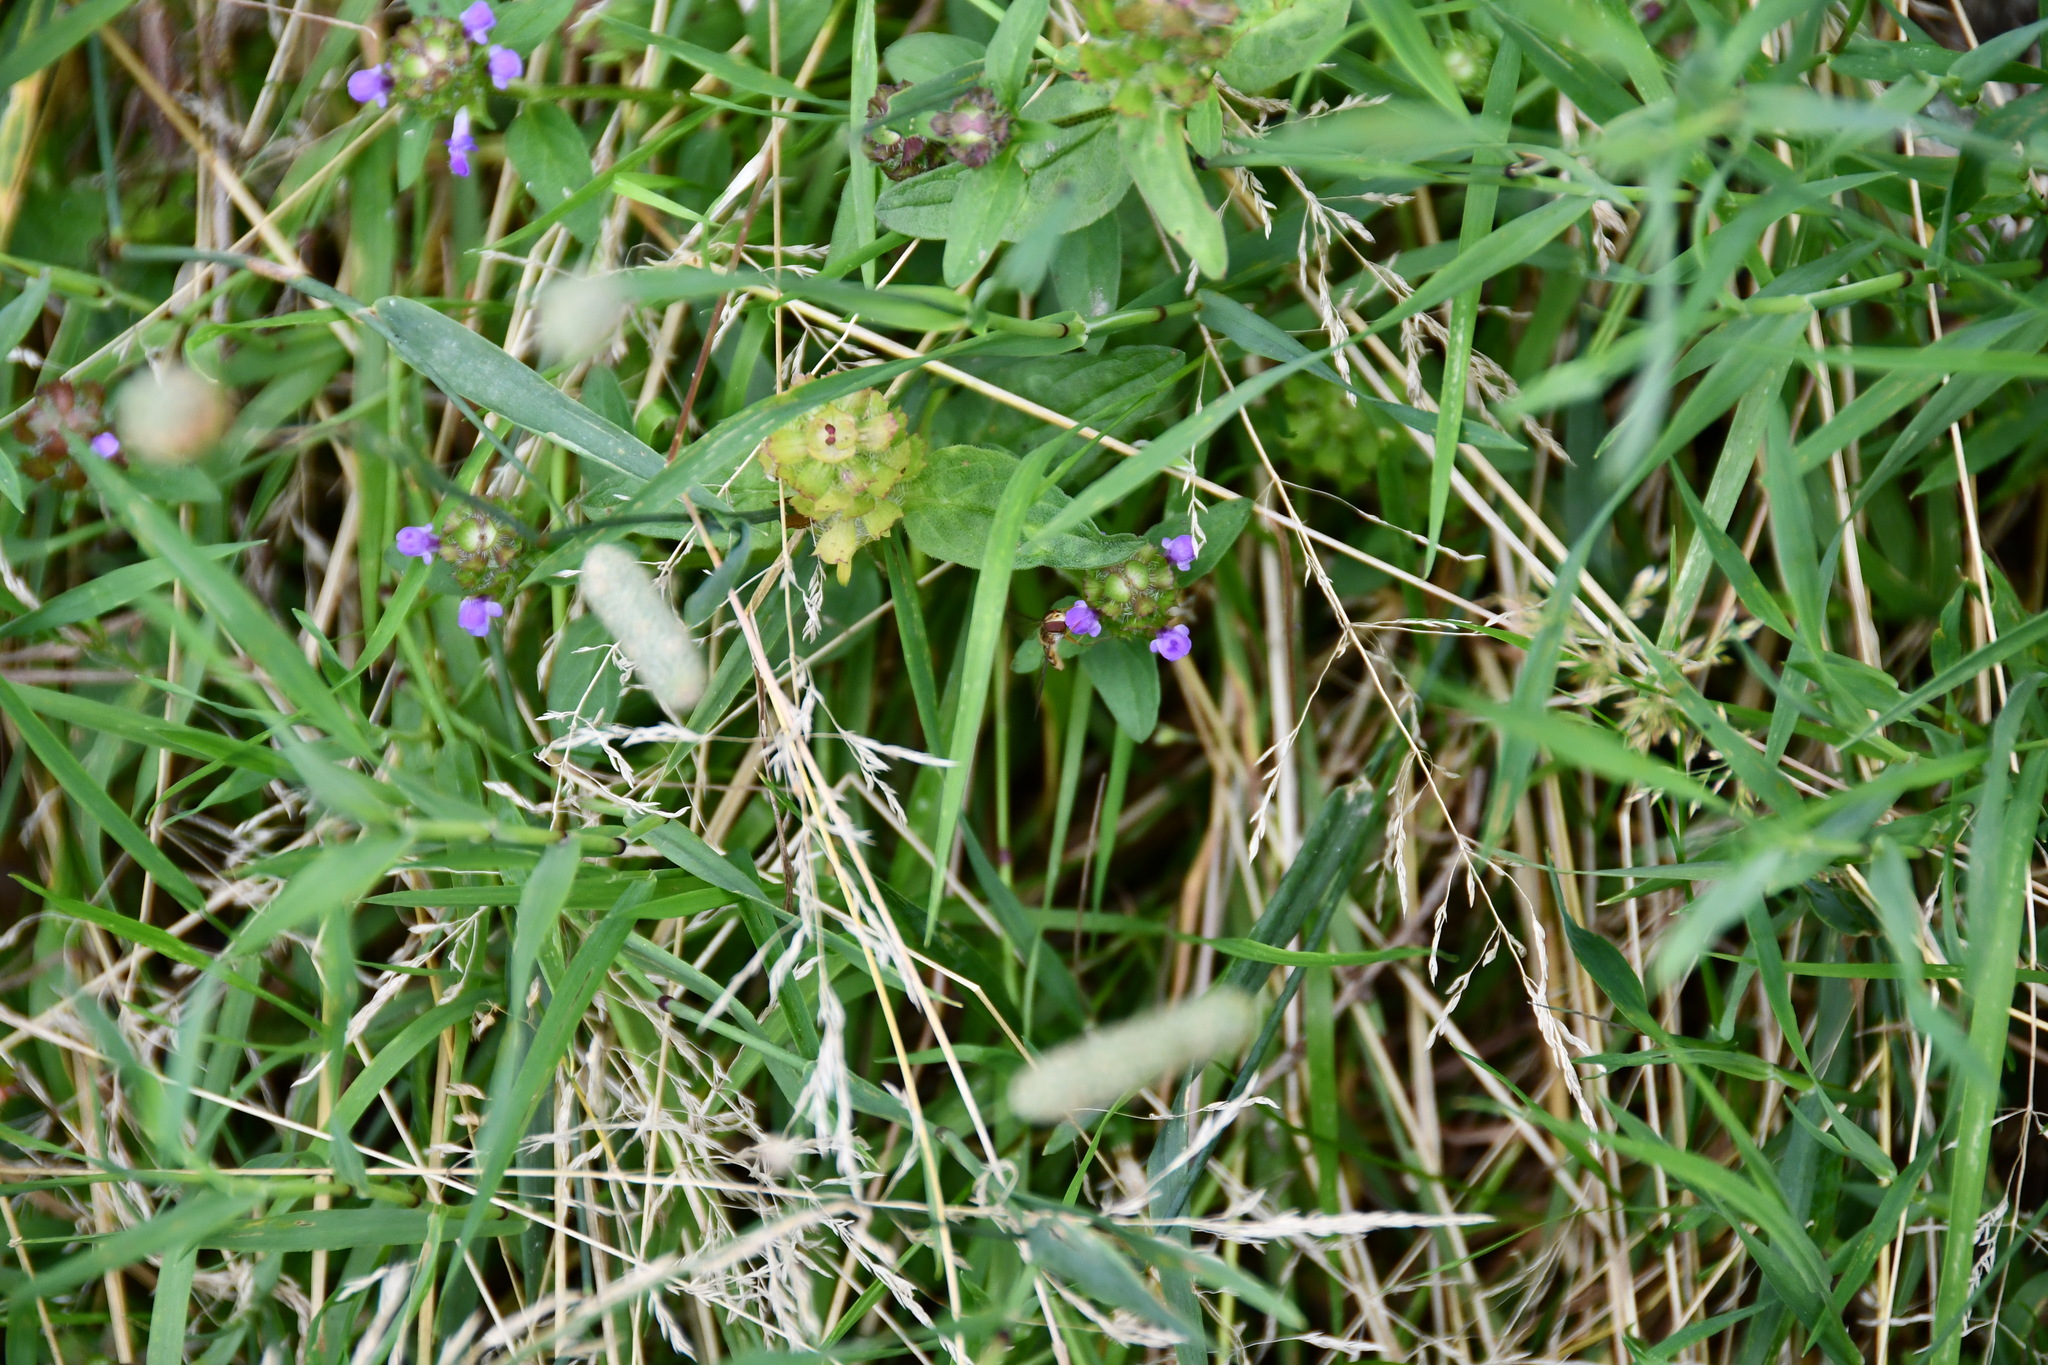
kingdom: Animalia
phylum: Arthropoda
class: Insecta
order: Diptera
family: Syrphidae
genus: Episyrphus
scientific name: Episyrphus balteatus
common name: Marmalade hoverfly
